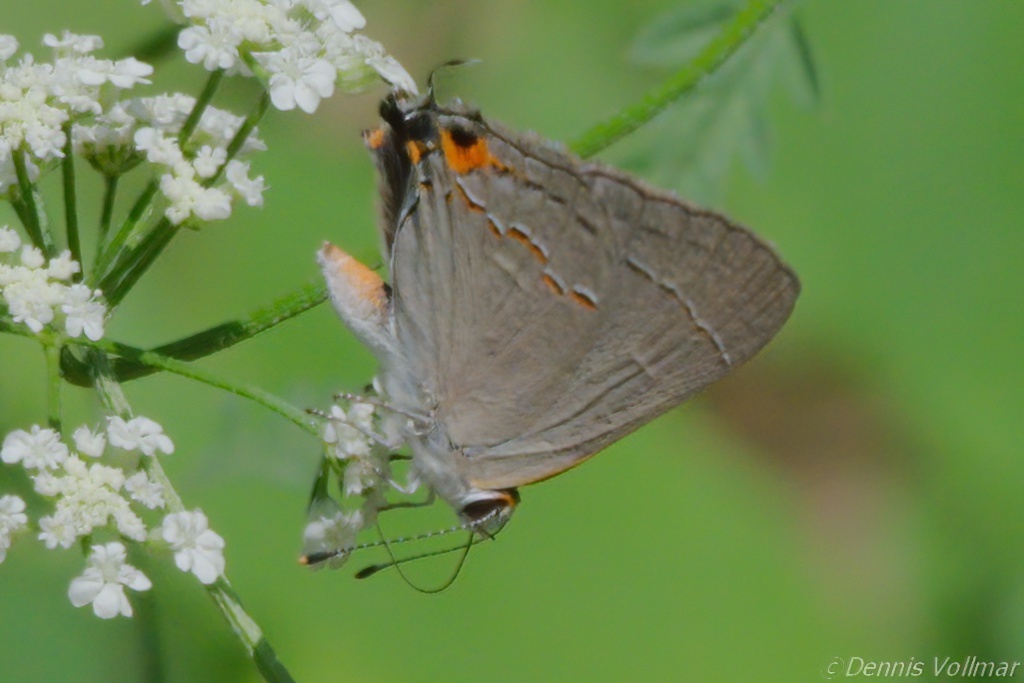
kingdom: Animalia
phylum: Arthropoda
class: Insecta
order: Lepidoptera
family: Lycaenidae
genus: Strymon
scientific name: Strymon melinus
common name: Gray hairstreak
